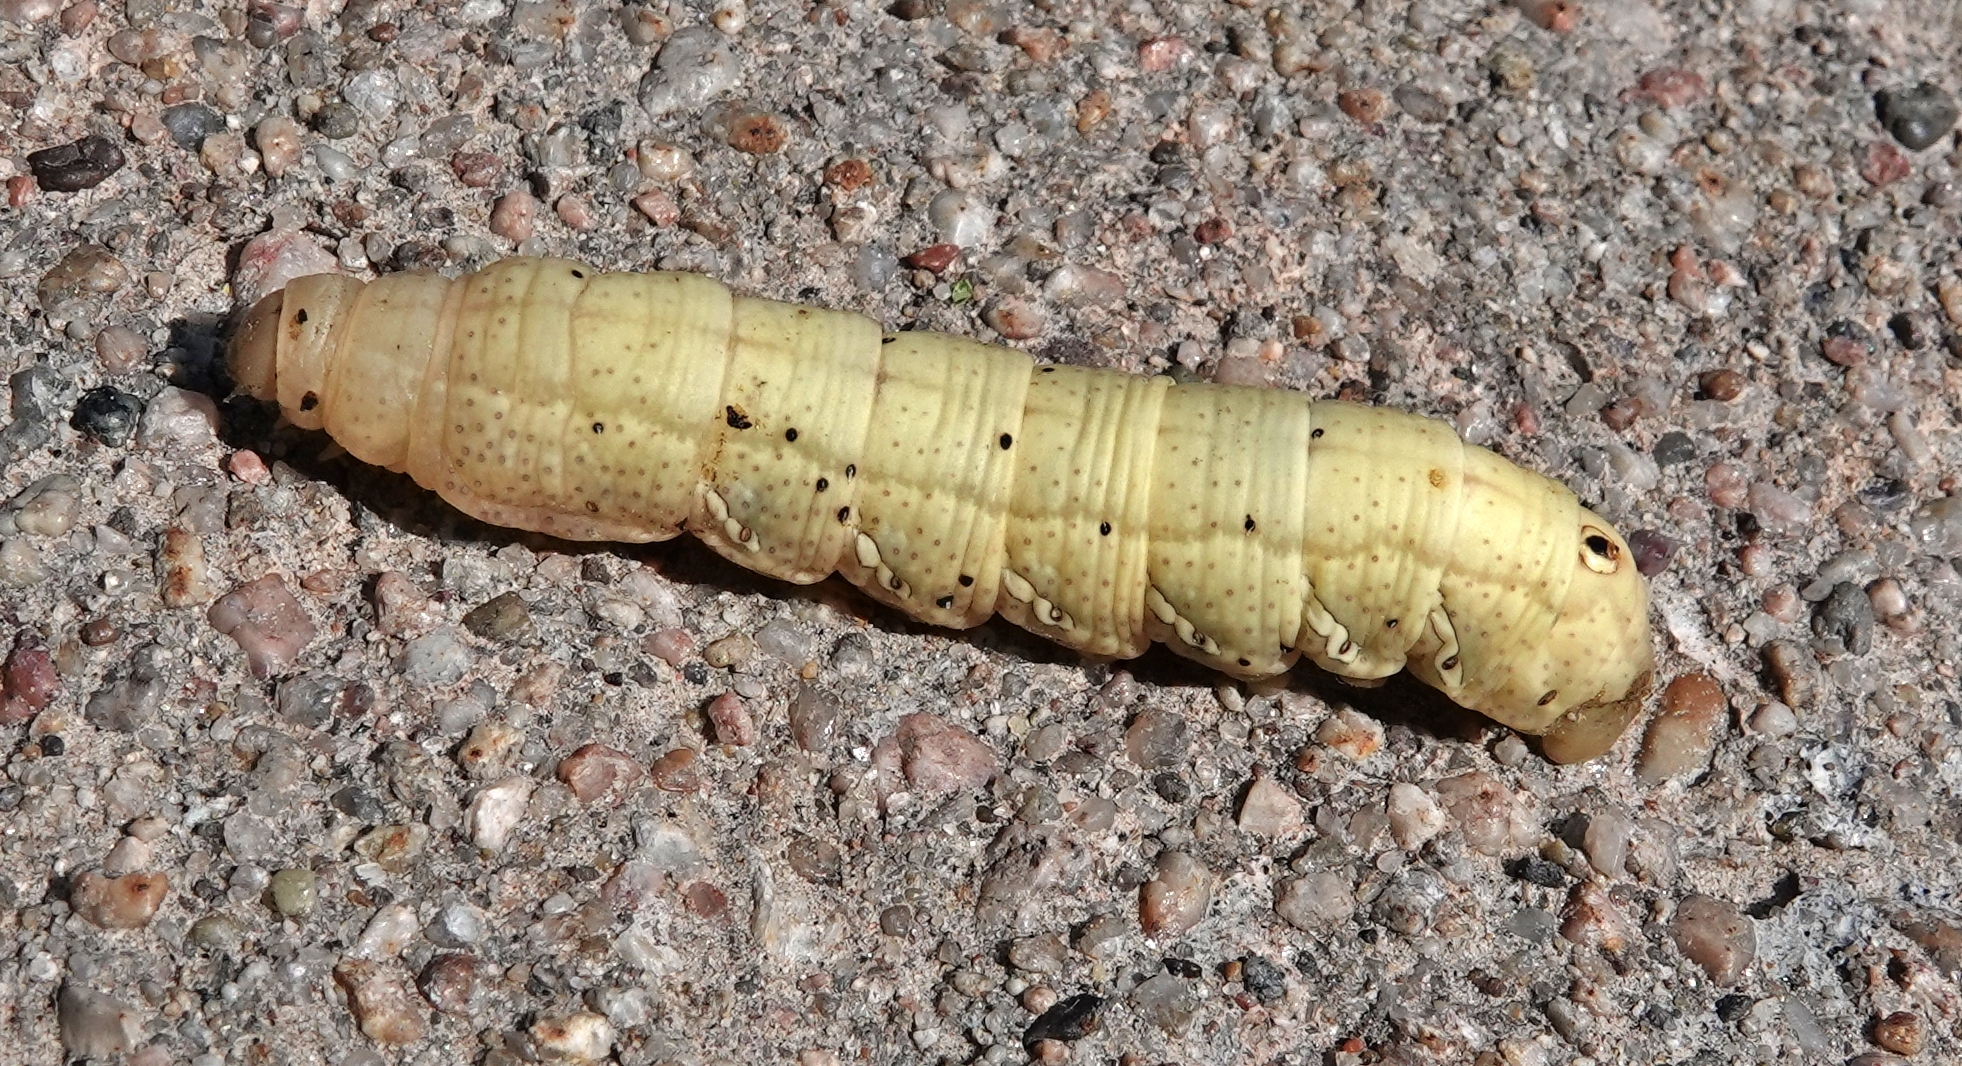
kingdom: Animalia
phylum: Arthropoda
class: Insecta
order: Lepidoptera
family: Sphingidae
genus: Eumorpha
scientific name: Eumorpha achemon
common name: Achemon sphinx
